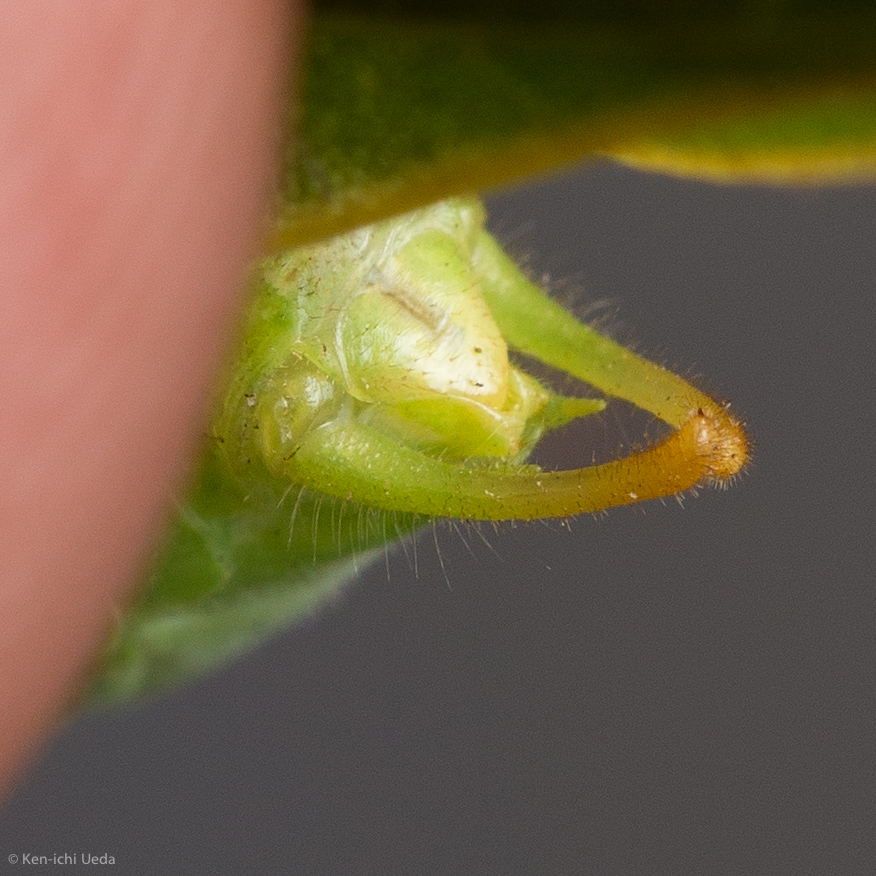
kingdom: Animalia
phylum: Arthropoda
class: Insecta
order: Orthoptera
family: Tettigoniidae
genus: Microcentrum
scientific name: Microcentrum californicum
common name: California angle-wing
